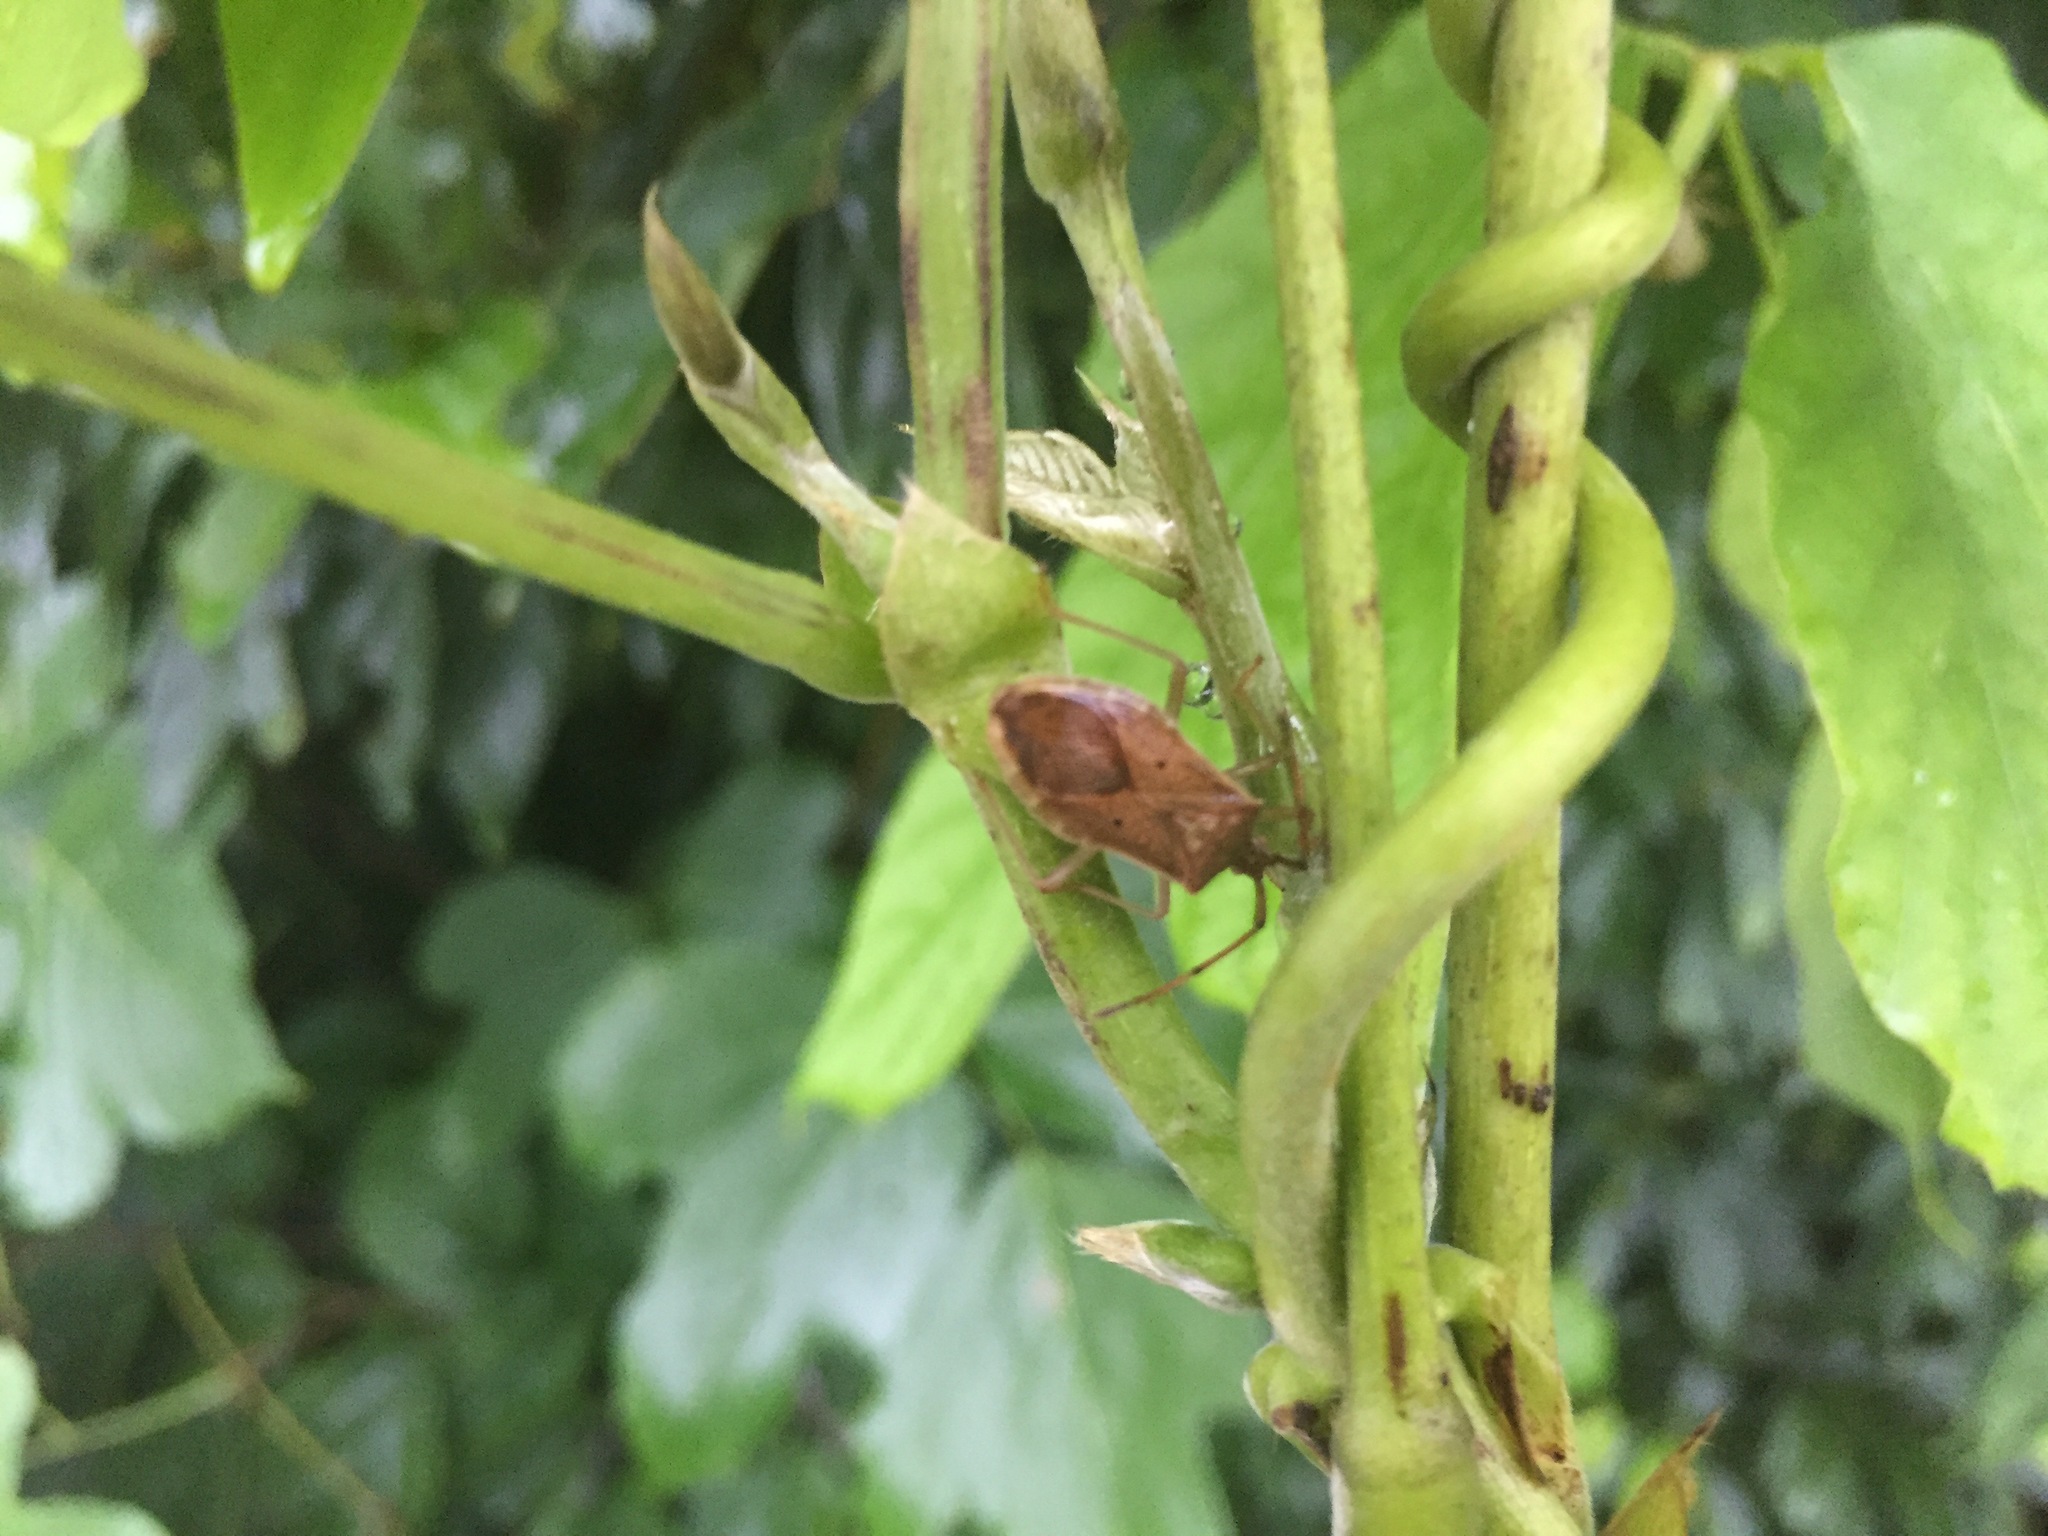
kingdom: Animalia
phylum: Arthropoda
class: Insecta
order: Hemiptera
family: Coreidae
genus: Homoeocerus
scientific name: Homoeocerus unipunctatus
